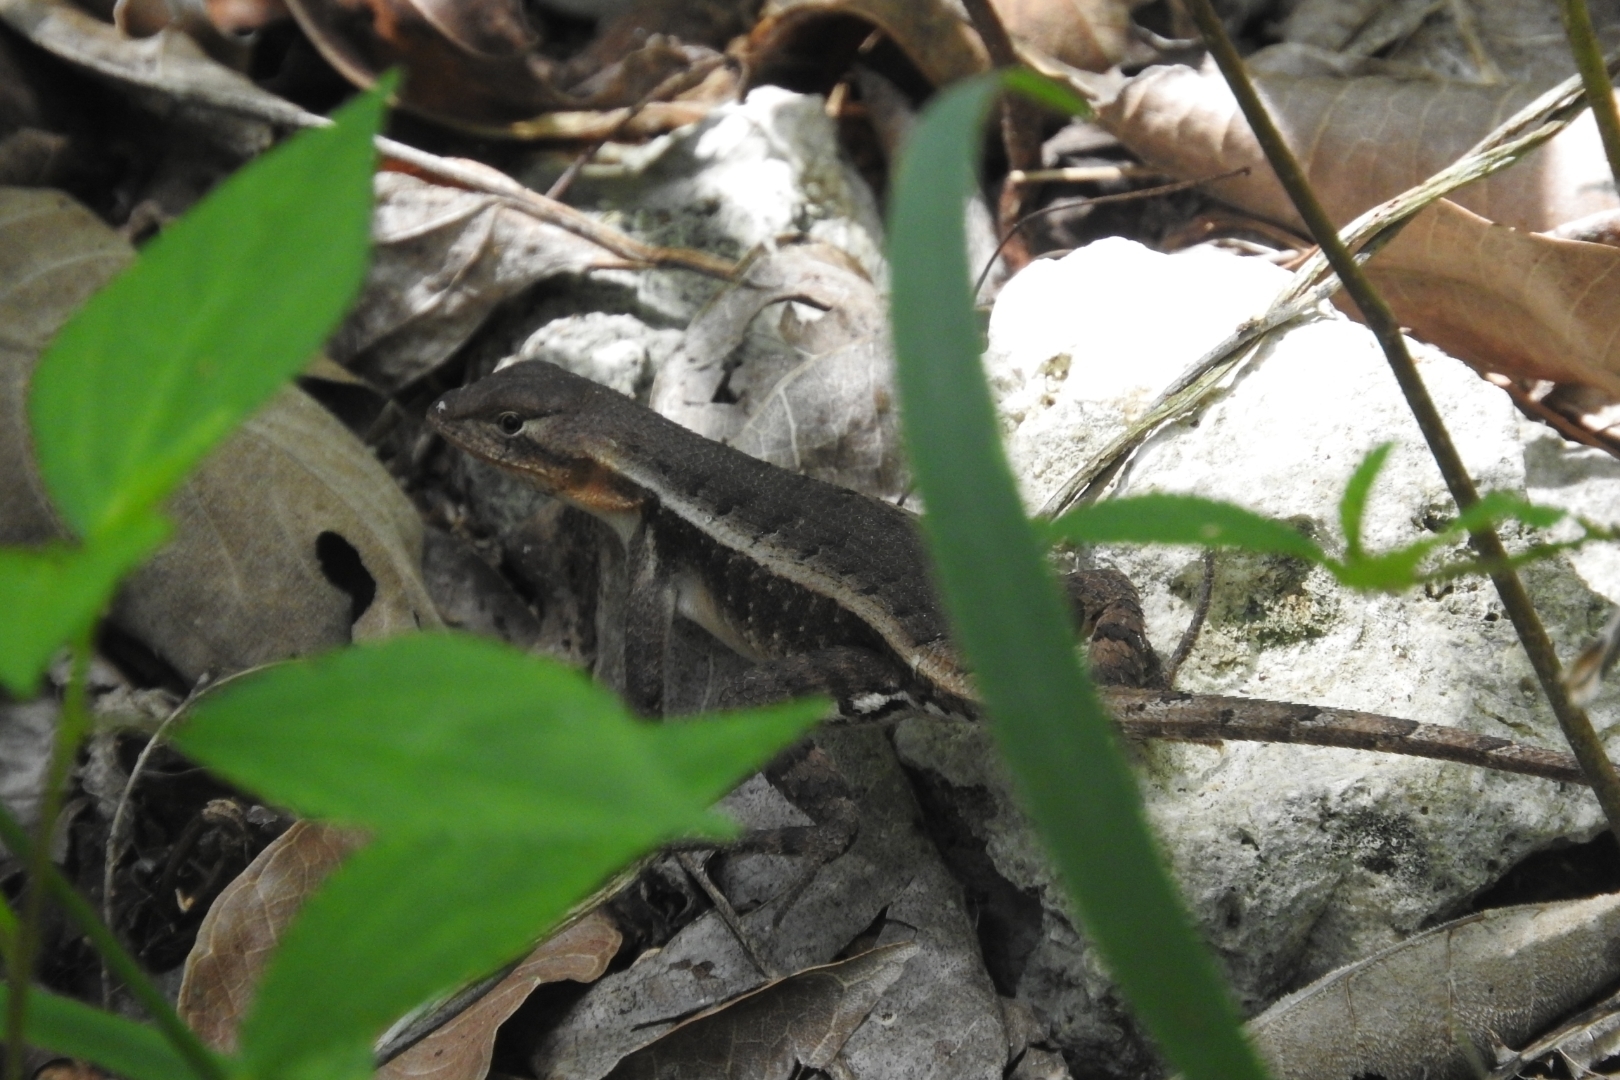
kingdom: Animalia
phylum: Chordata
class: Squamata
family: Phrynosomatidae
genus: Sceloporus
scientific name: Sceloporus chrysostictus
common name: Yellow-spotted spiny lizard
